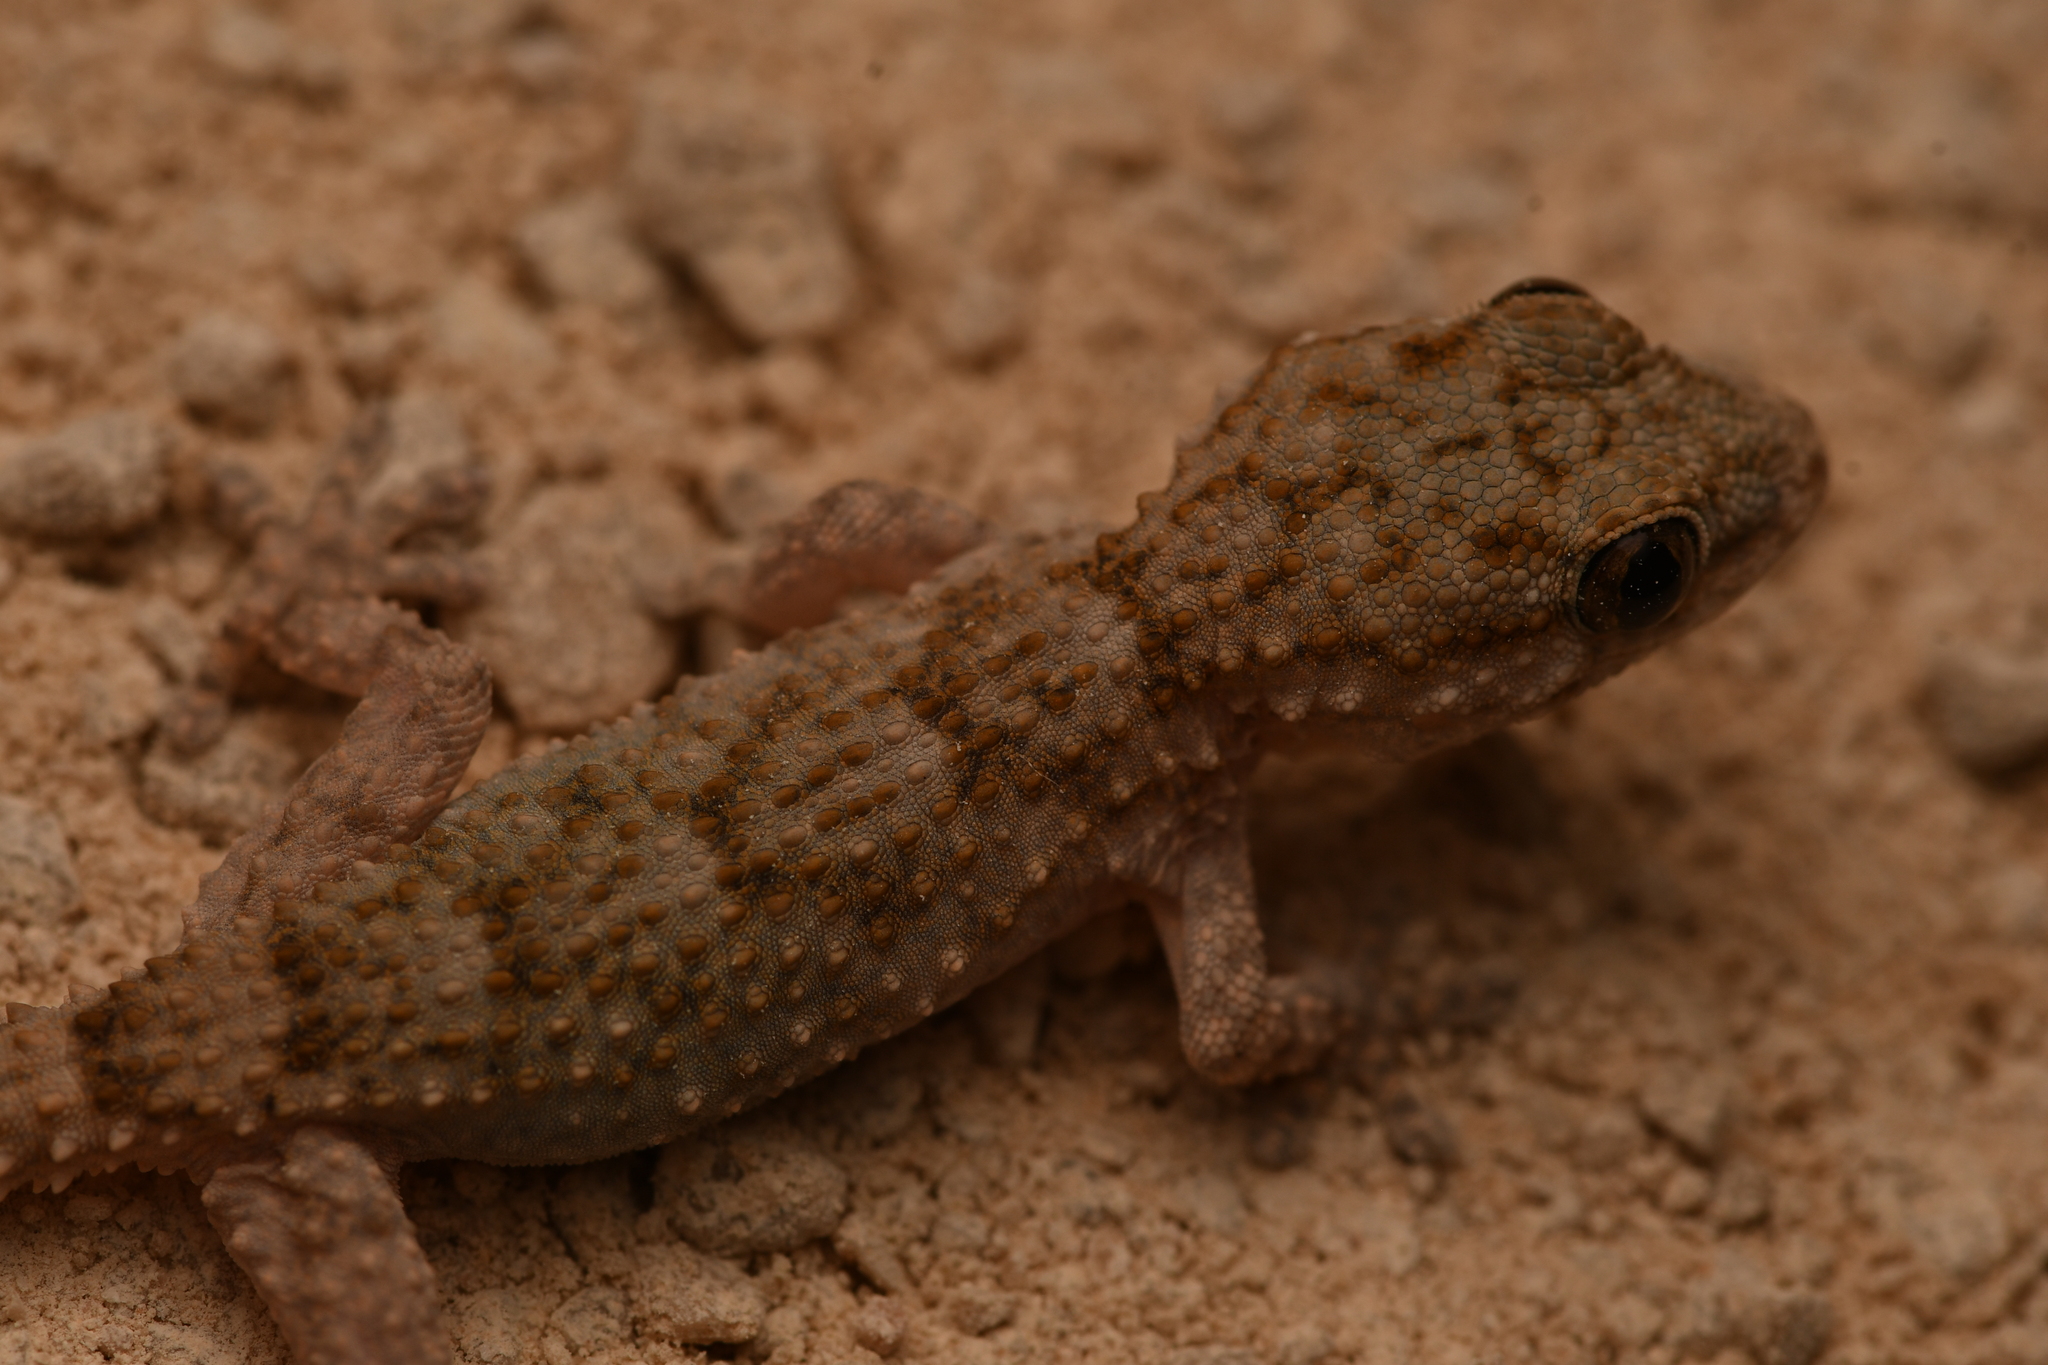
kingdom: Animalia
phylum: Chordata
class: Squamata
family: Phyllodactylidae
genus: Tarentola
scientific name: Tarentola mauritanica
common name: Moorish gecko
